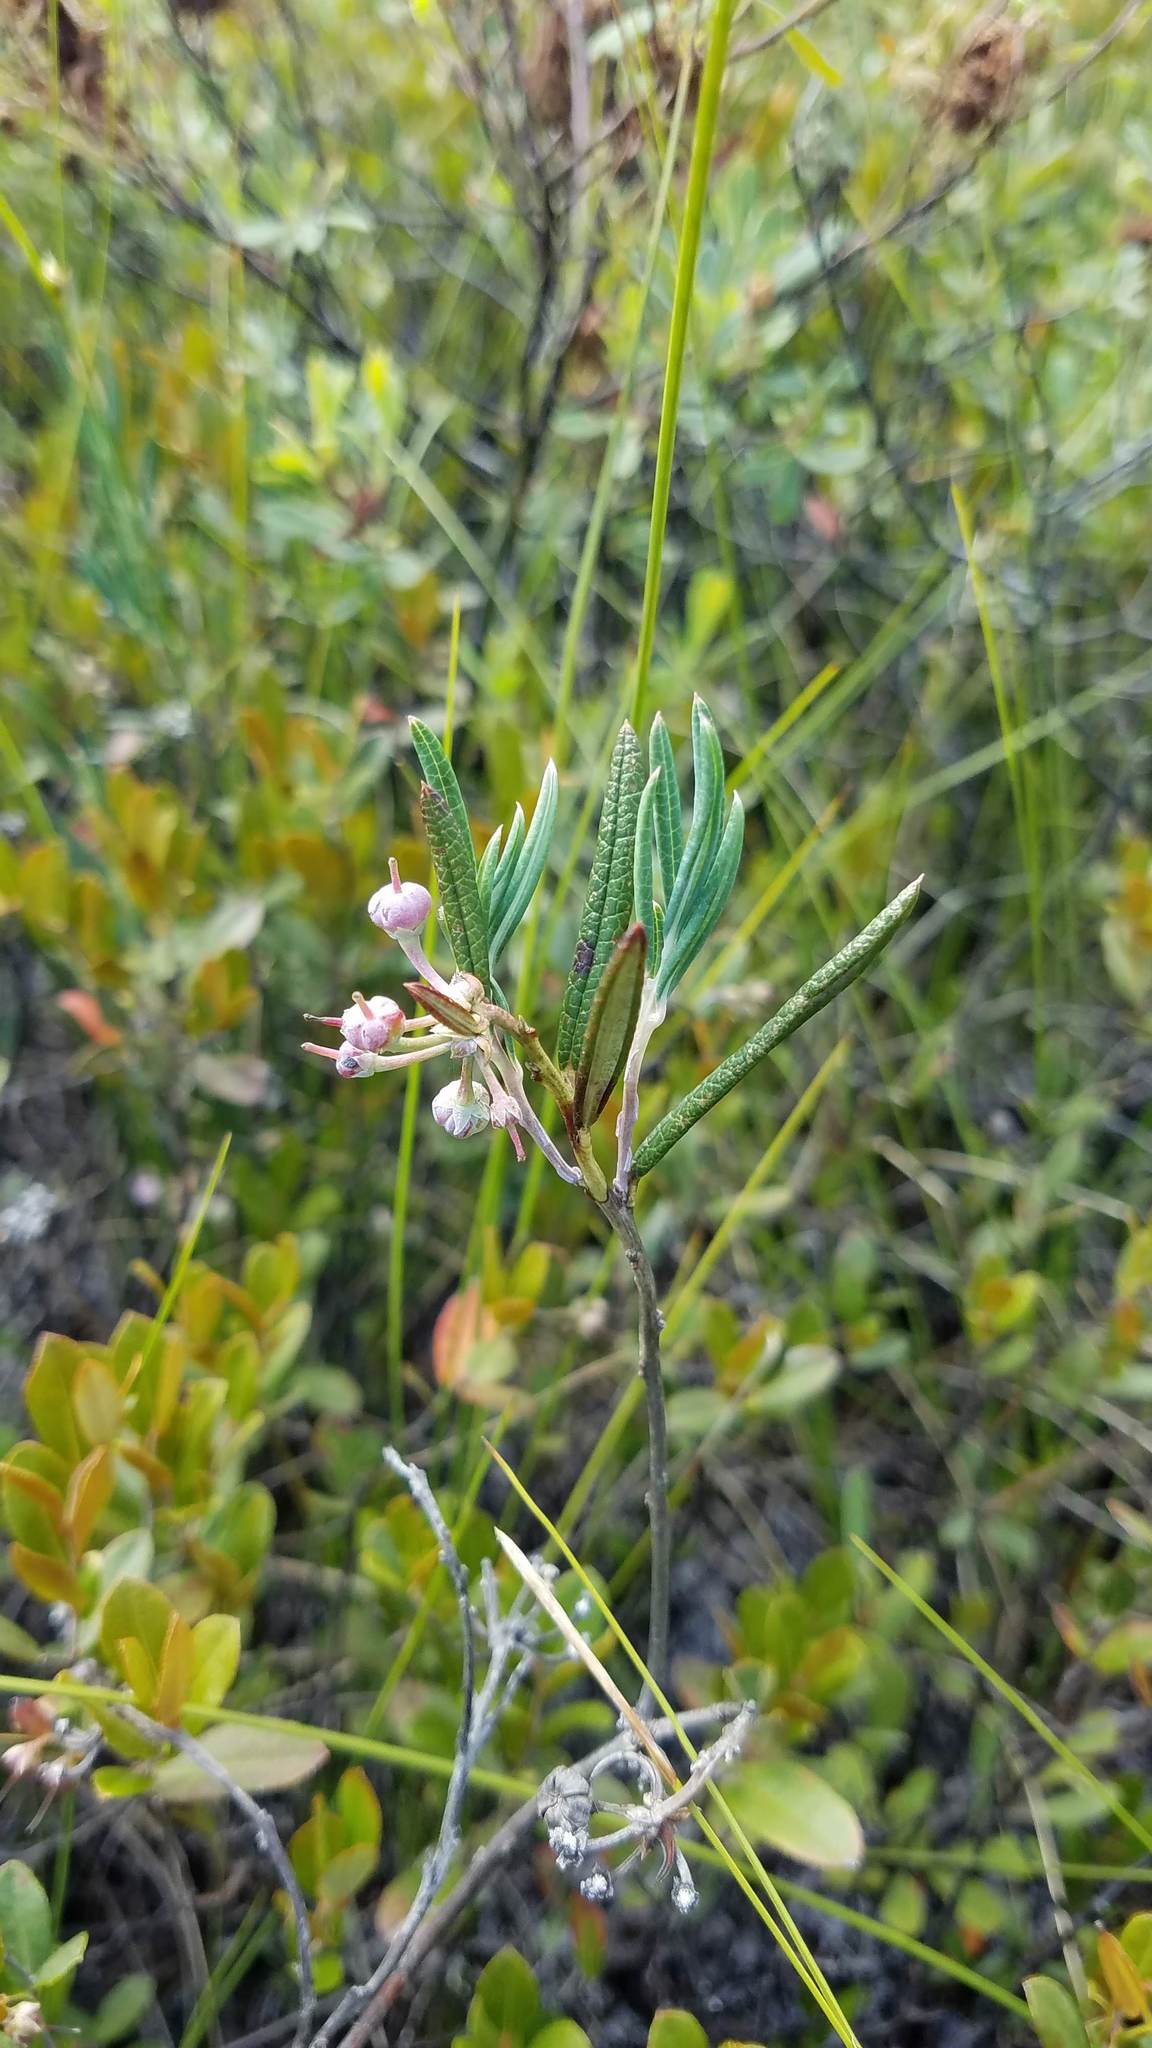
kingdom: Plantae
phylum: Tracheophyta
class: Magnoliopsida
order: Ericales
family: Ericaceae
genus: Andromeda
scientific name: Andromeda polifolia
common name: Bog-rosemary
